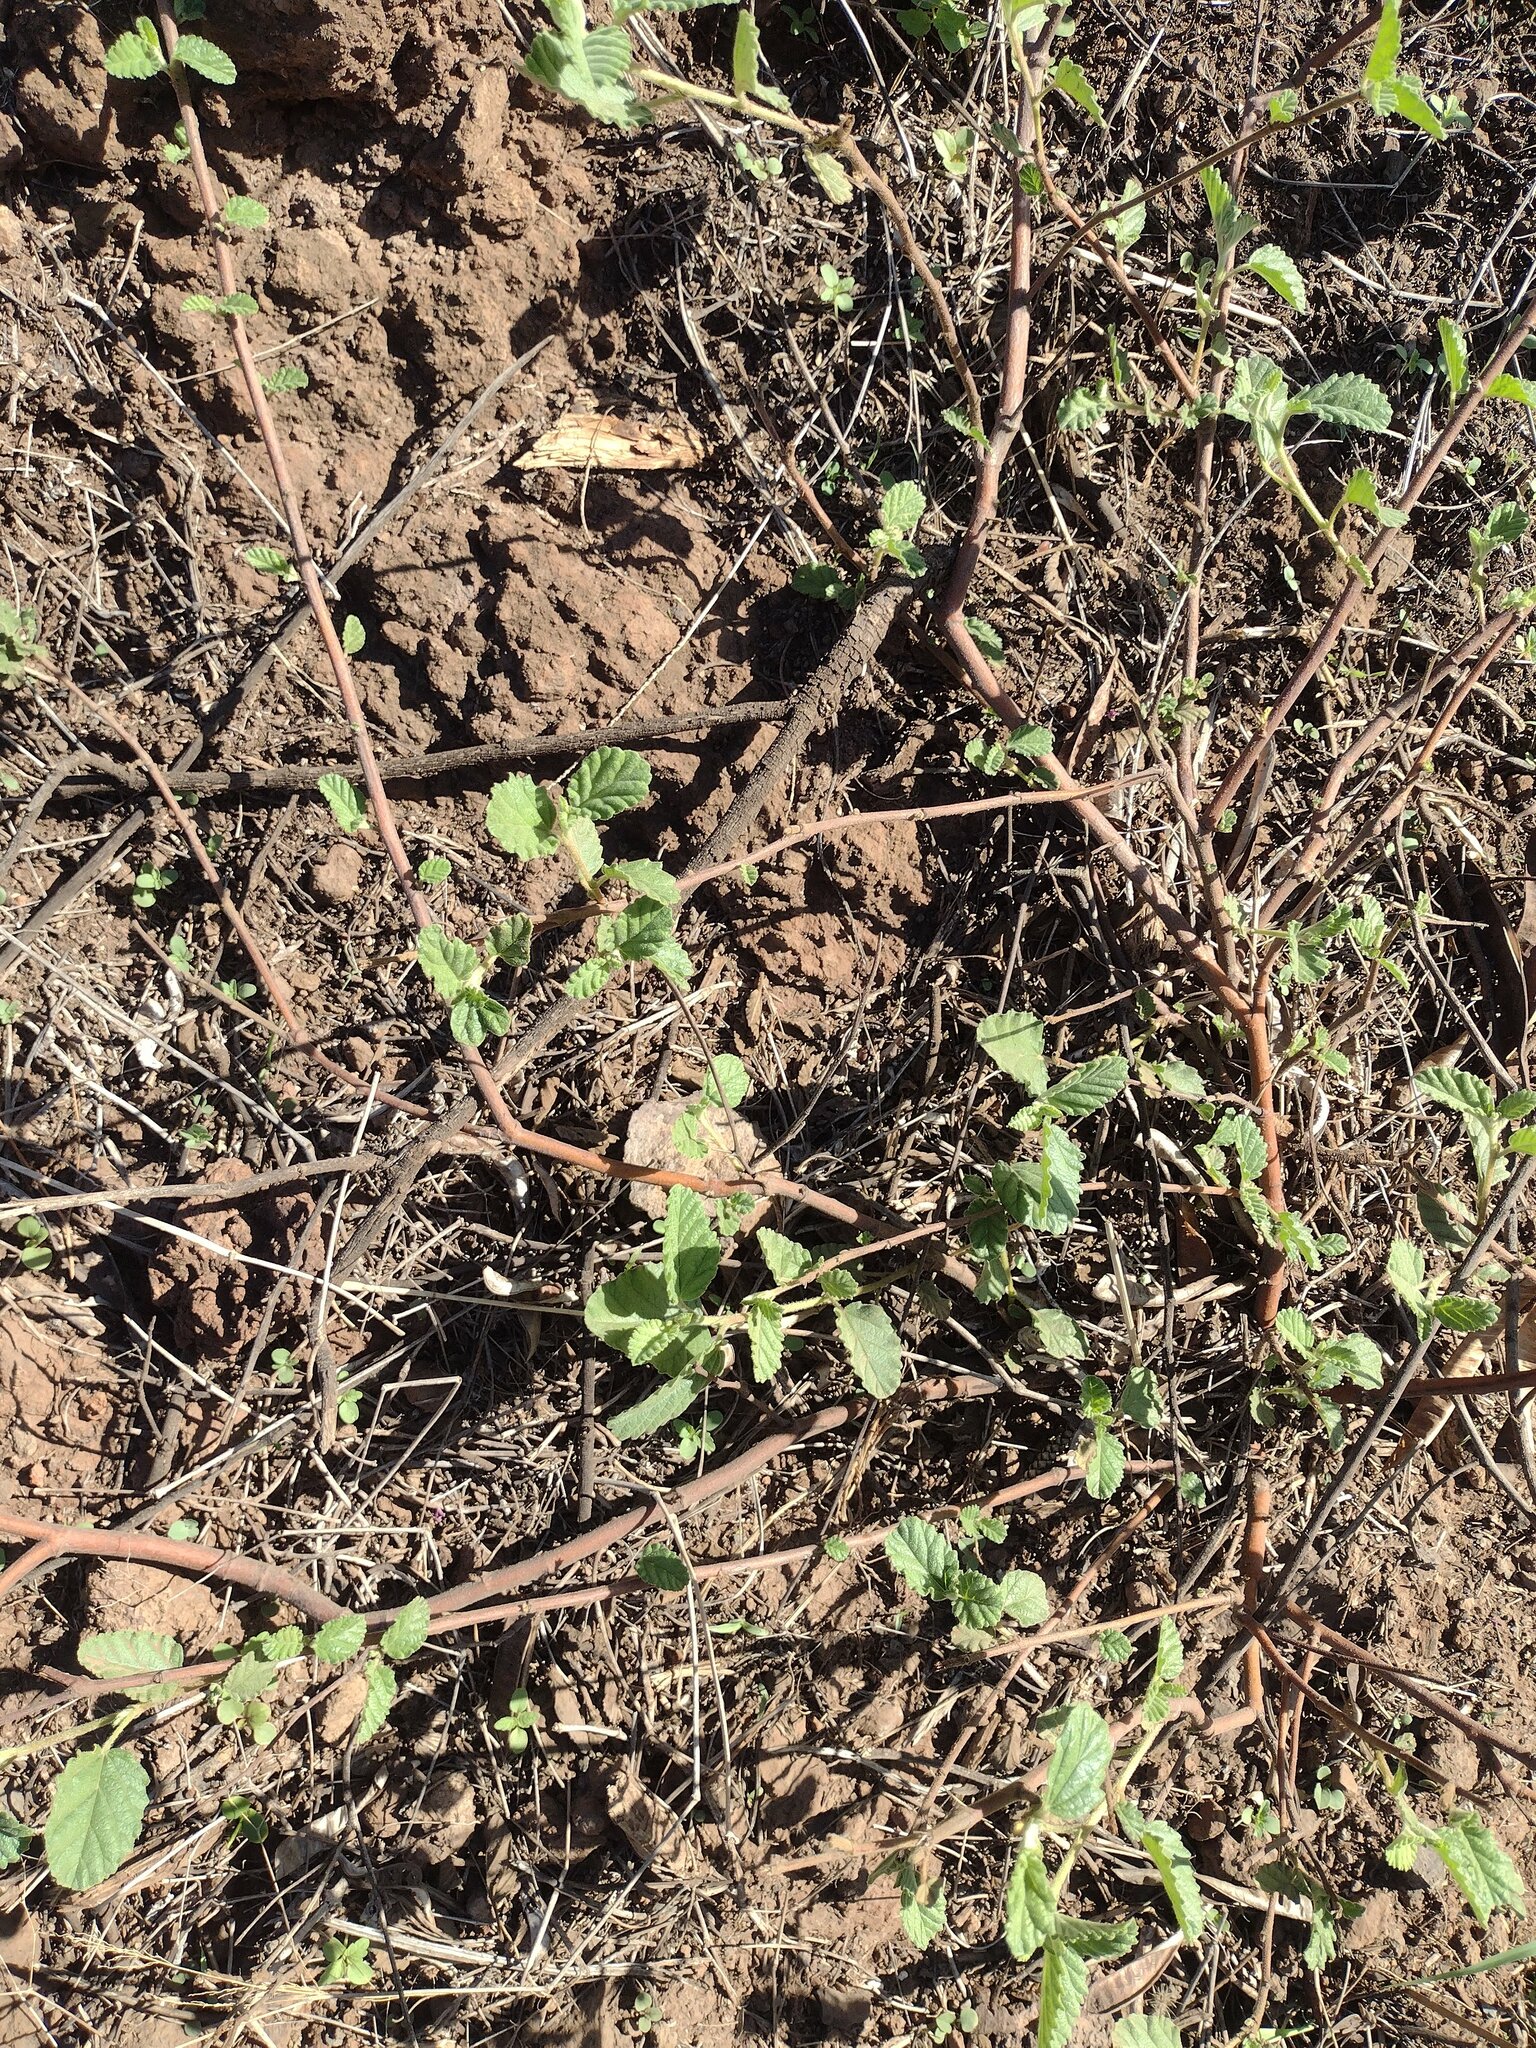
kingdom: Plantae
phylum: Tracheophyta
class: Magnoliopsida
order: Malvales
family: Malvaceae
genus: Waltheria
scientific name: Waltheria indica
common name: Leather-coat
